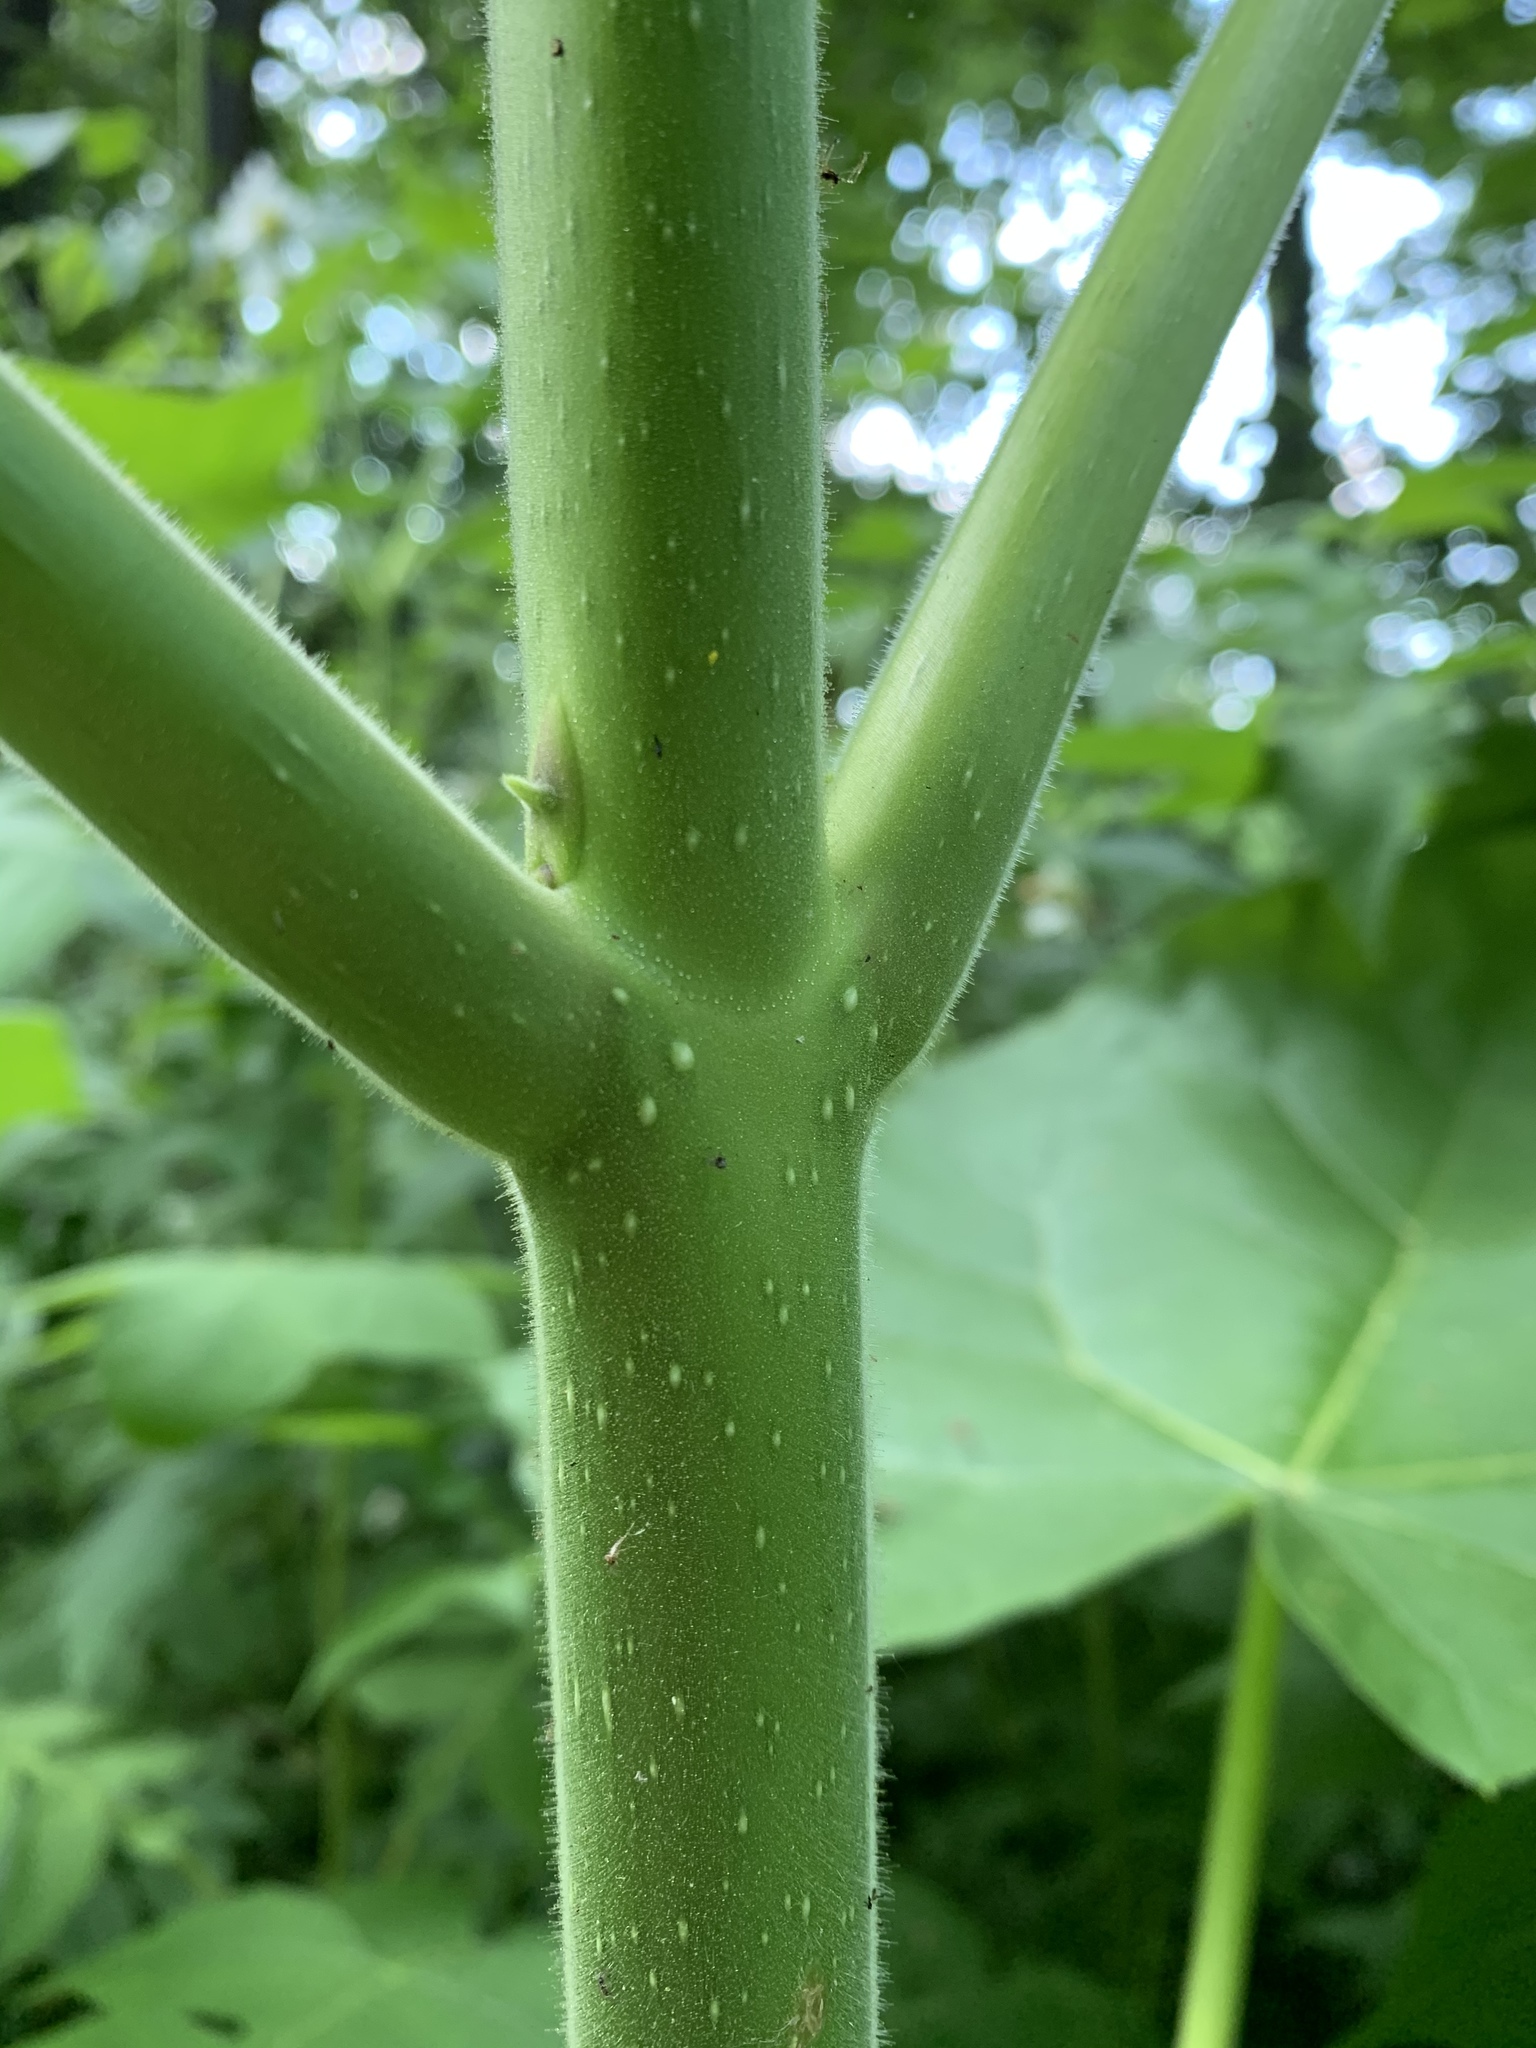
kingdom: Plantae
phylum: Tracheophyta
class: Magnoliopsida
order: Lamiales
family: Paulowniaceae
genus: Paulownia
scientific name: Paulownia tomentosa
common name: Foxglove-tree
